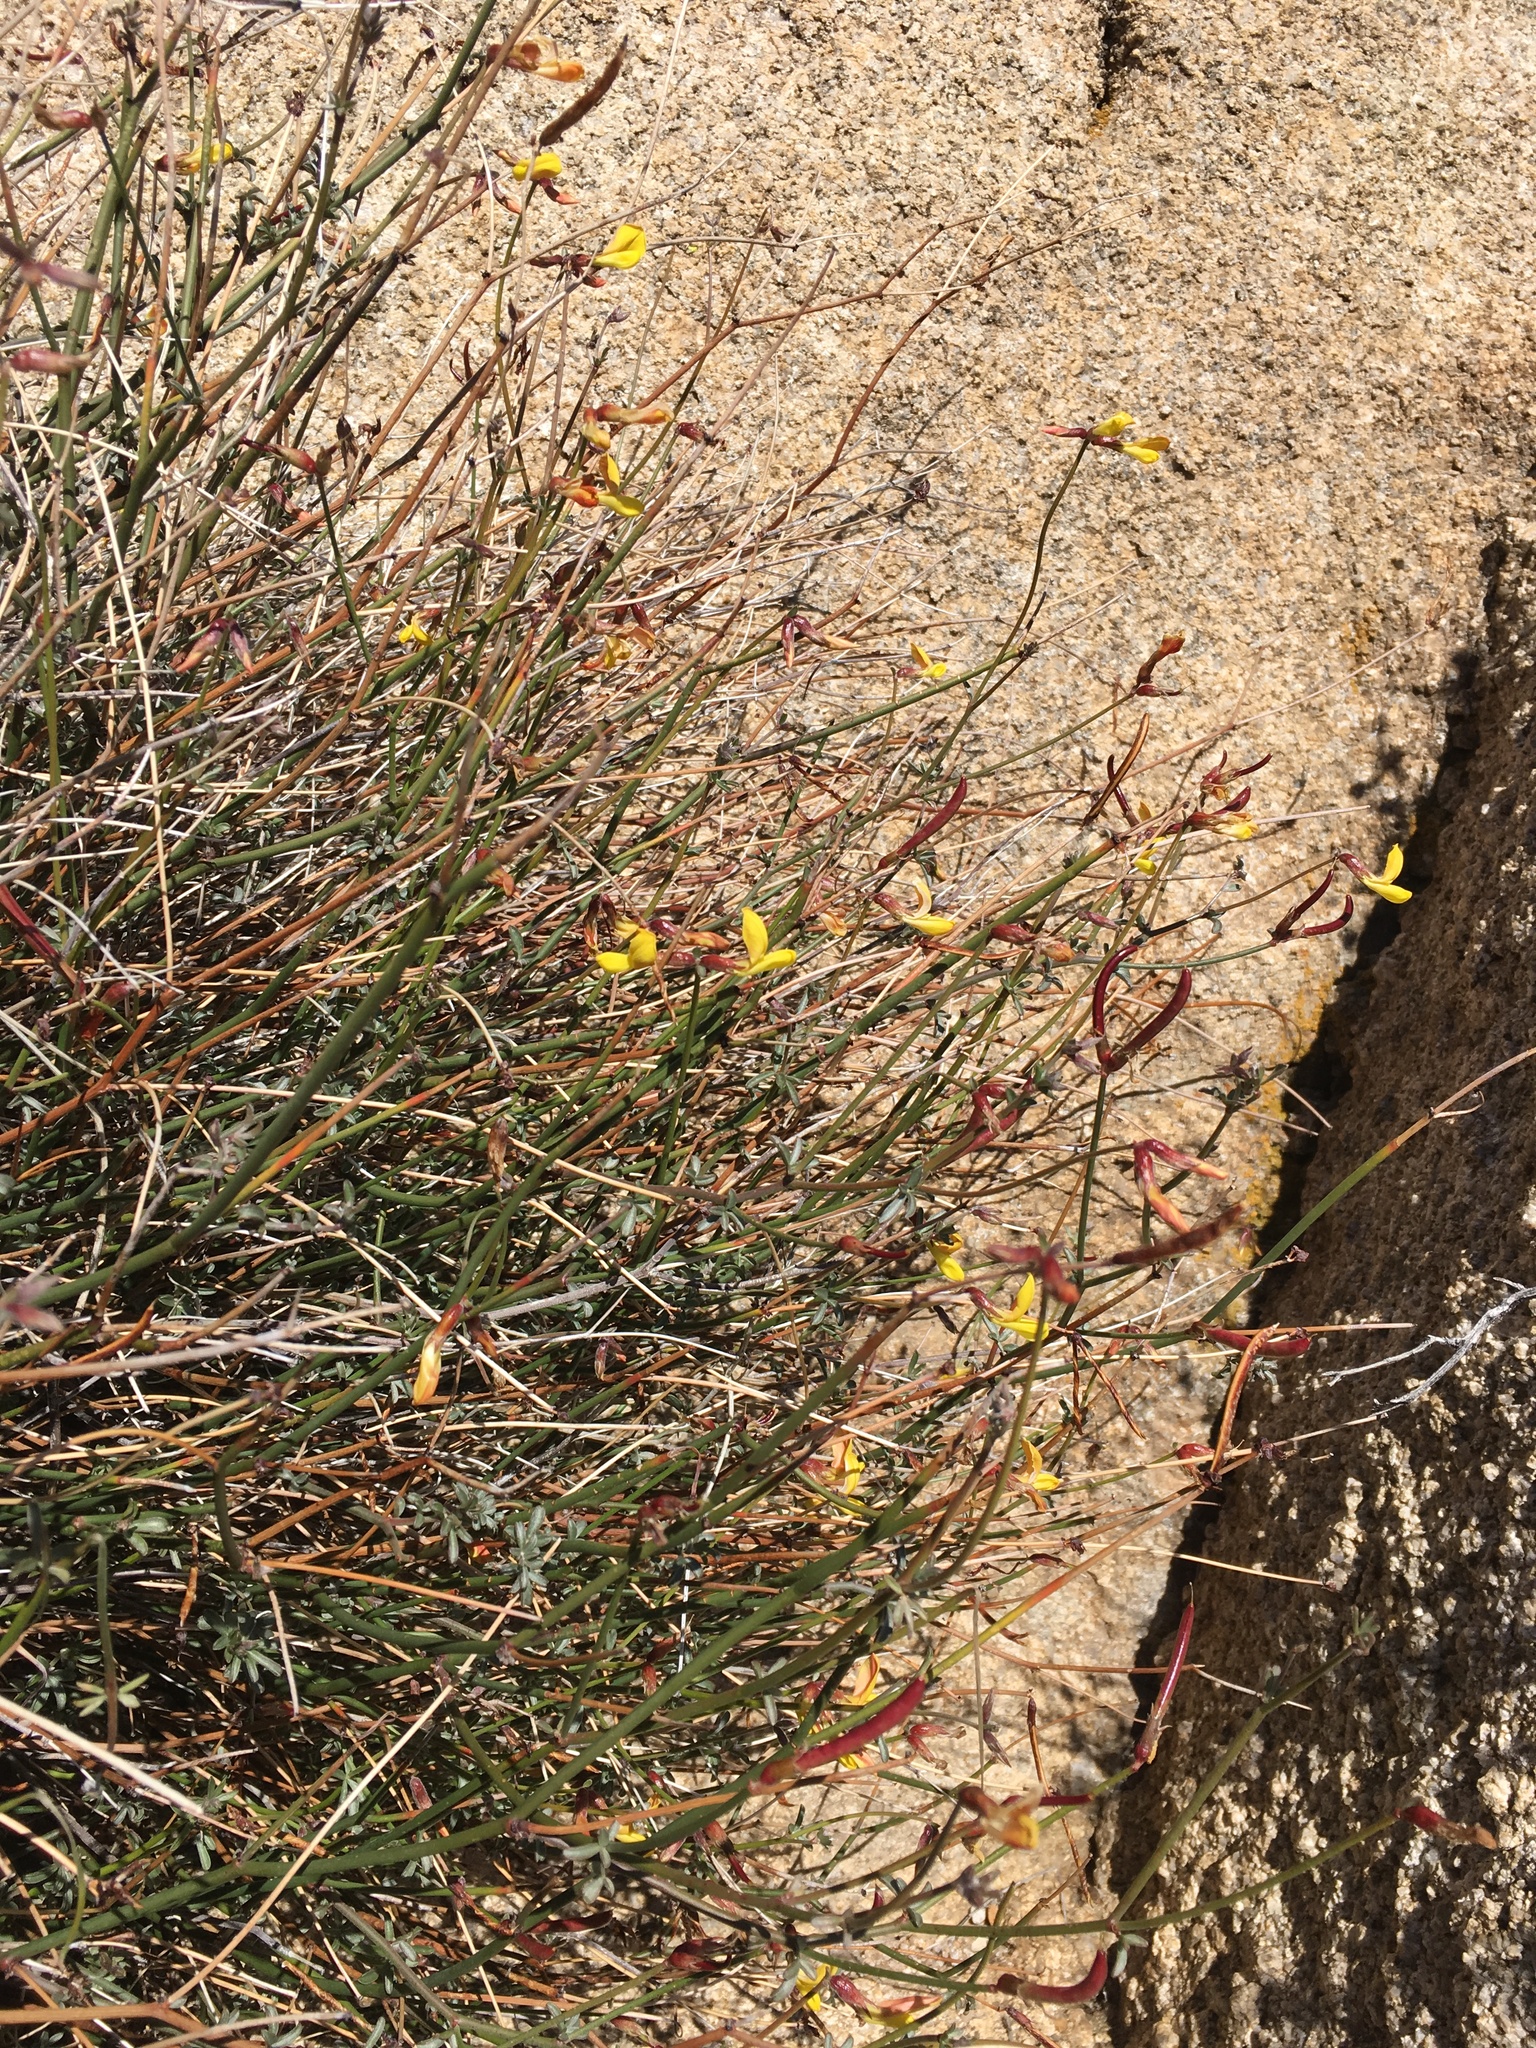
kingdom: Plantae
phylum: Tracheophyta
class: Magnoliopsida
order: Fabales
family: Fabaceae
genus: Acmispon
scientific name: Acmispon rigidus
